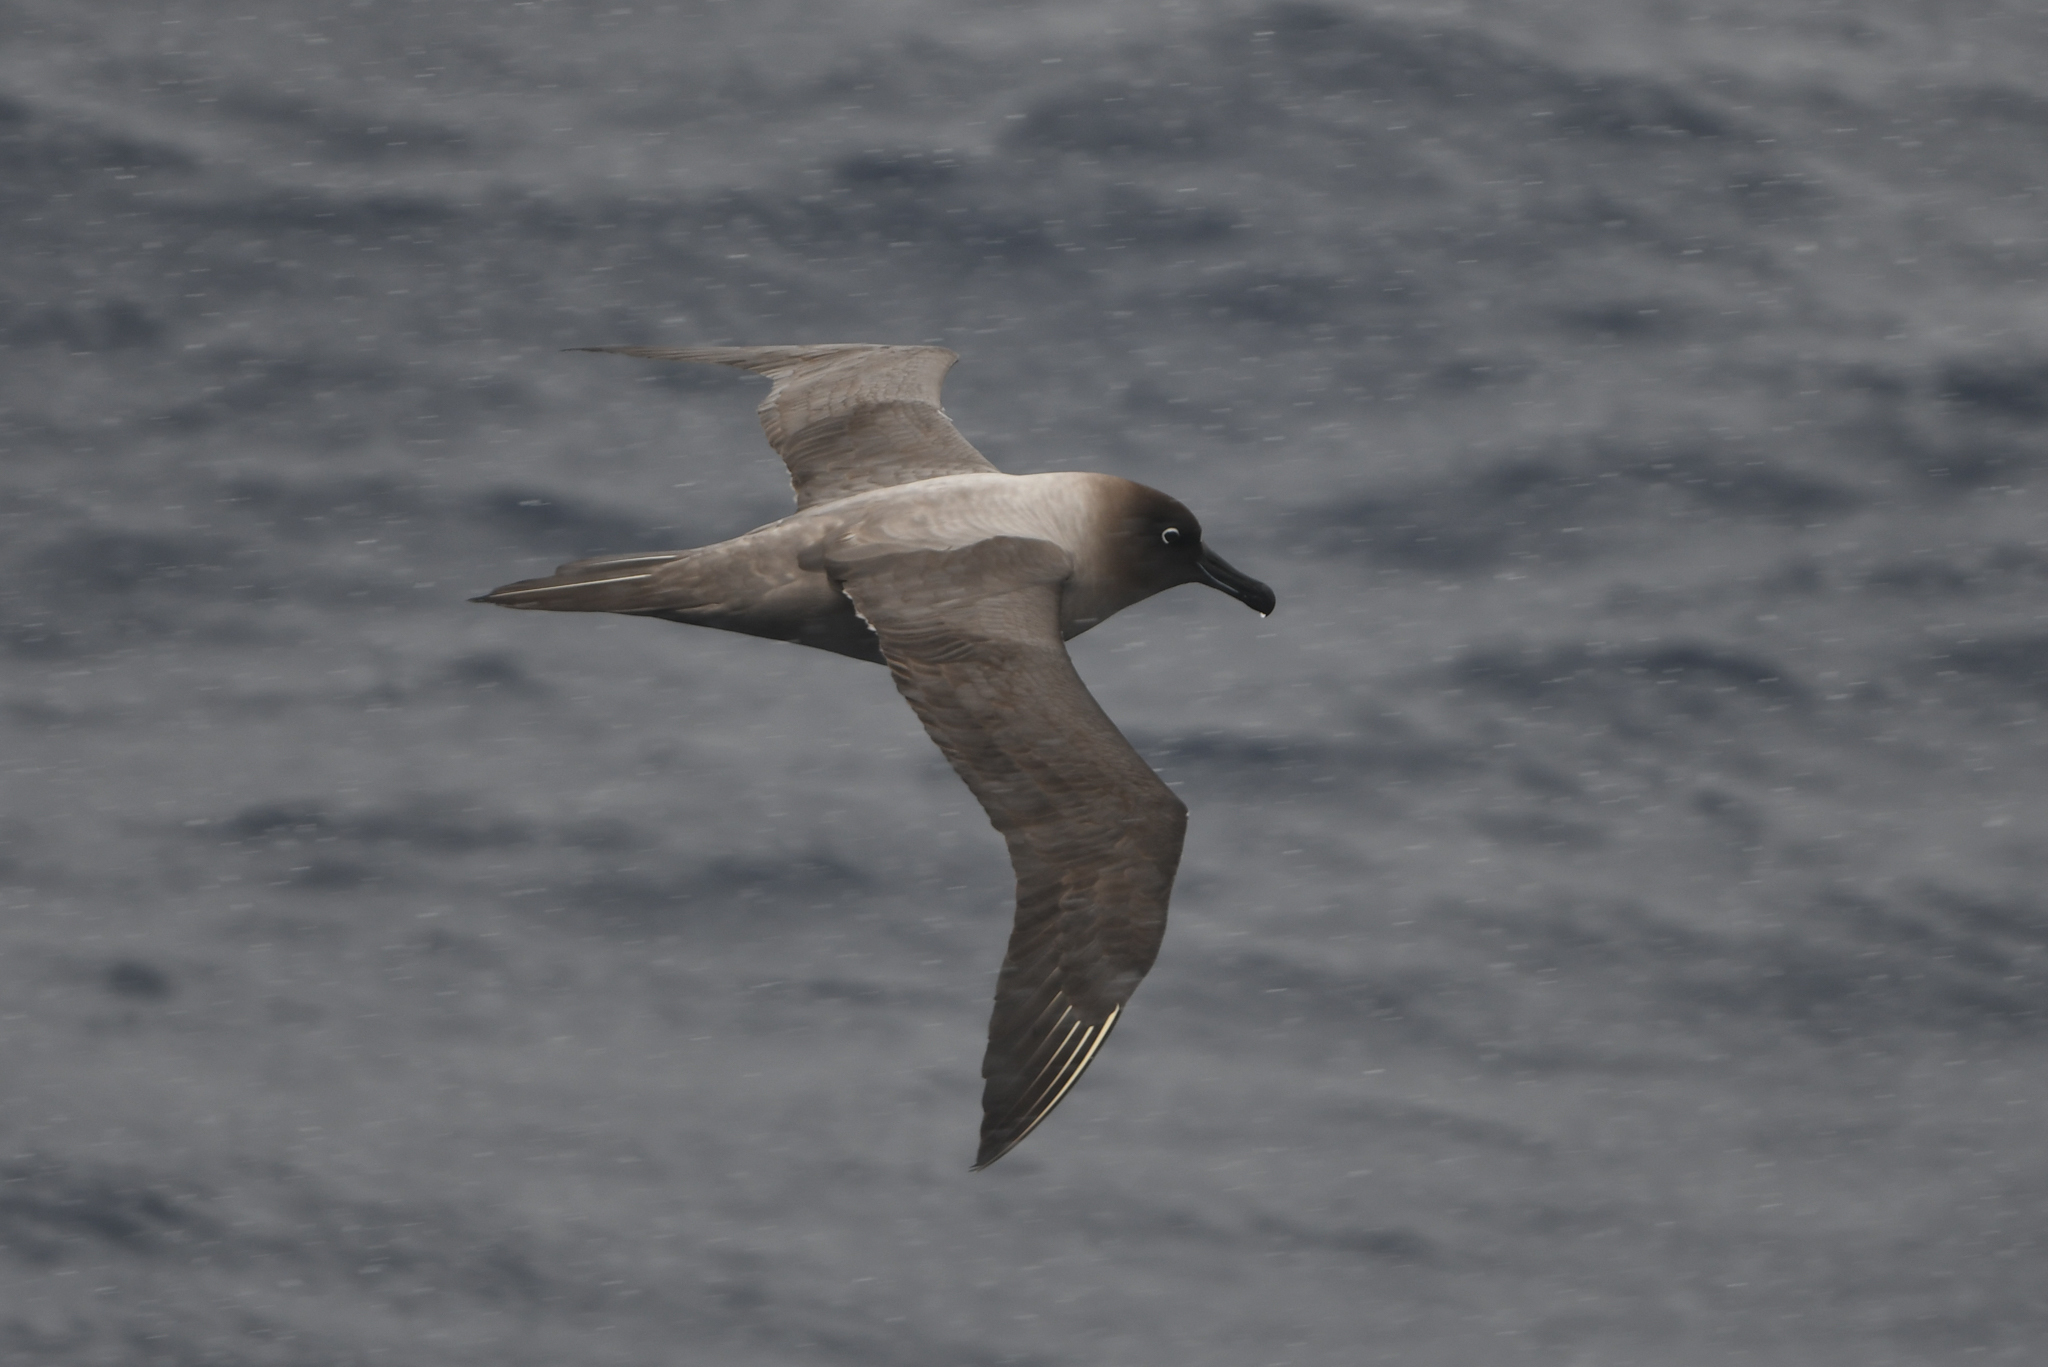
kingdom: Animalia
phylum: Chordata
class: Aves
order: Procellariiformes
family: Diomedeidae
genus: Phoebetria
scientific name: Phoebetria palpebrata
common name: Light-mantled albatross
